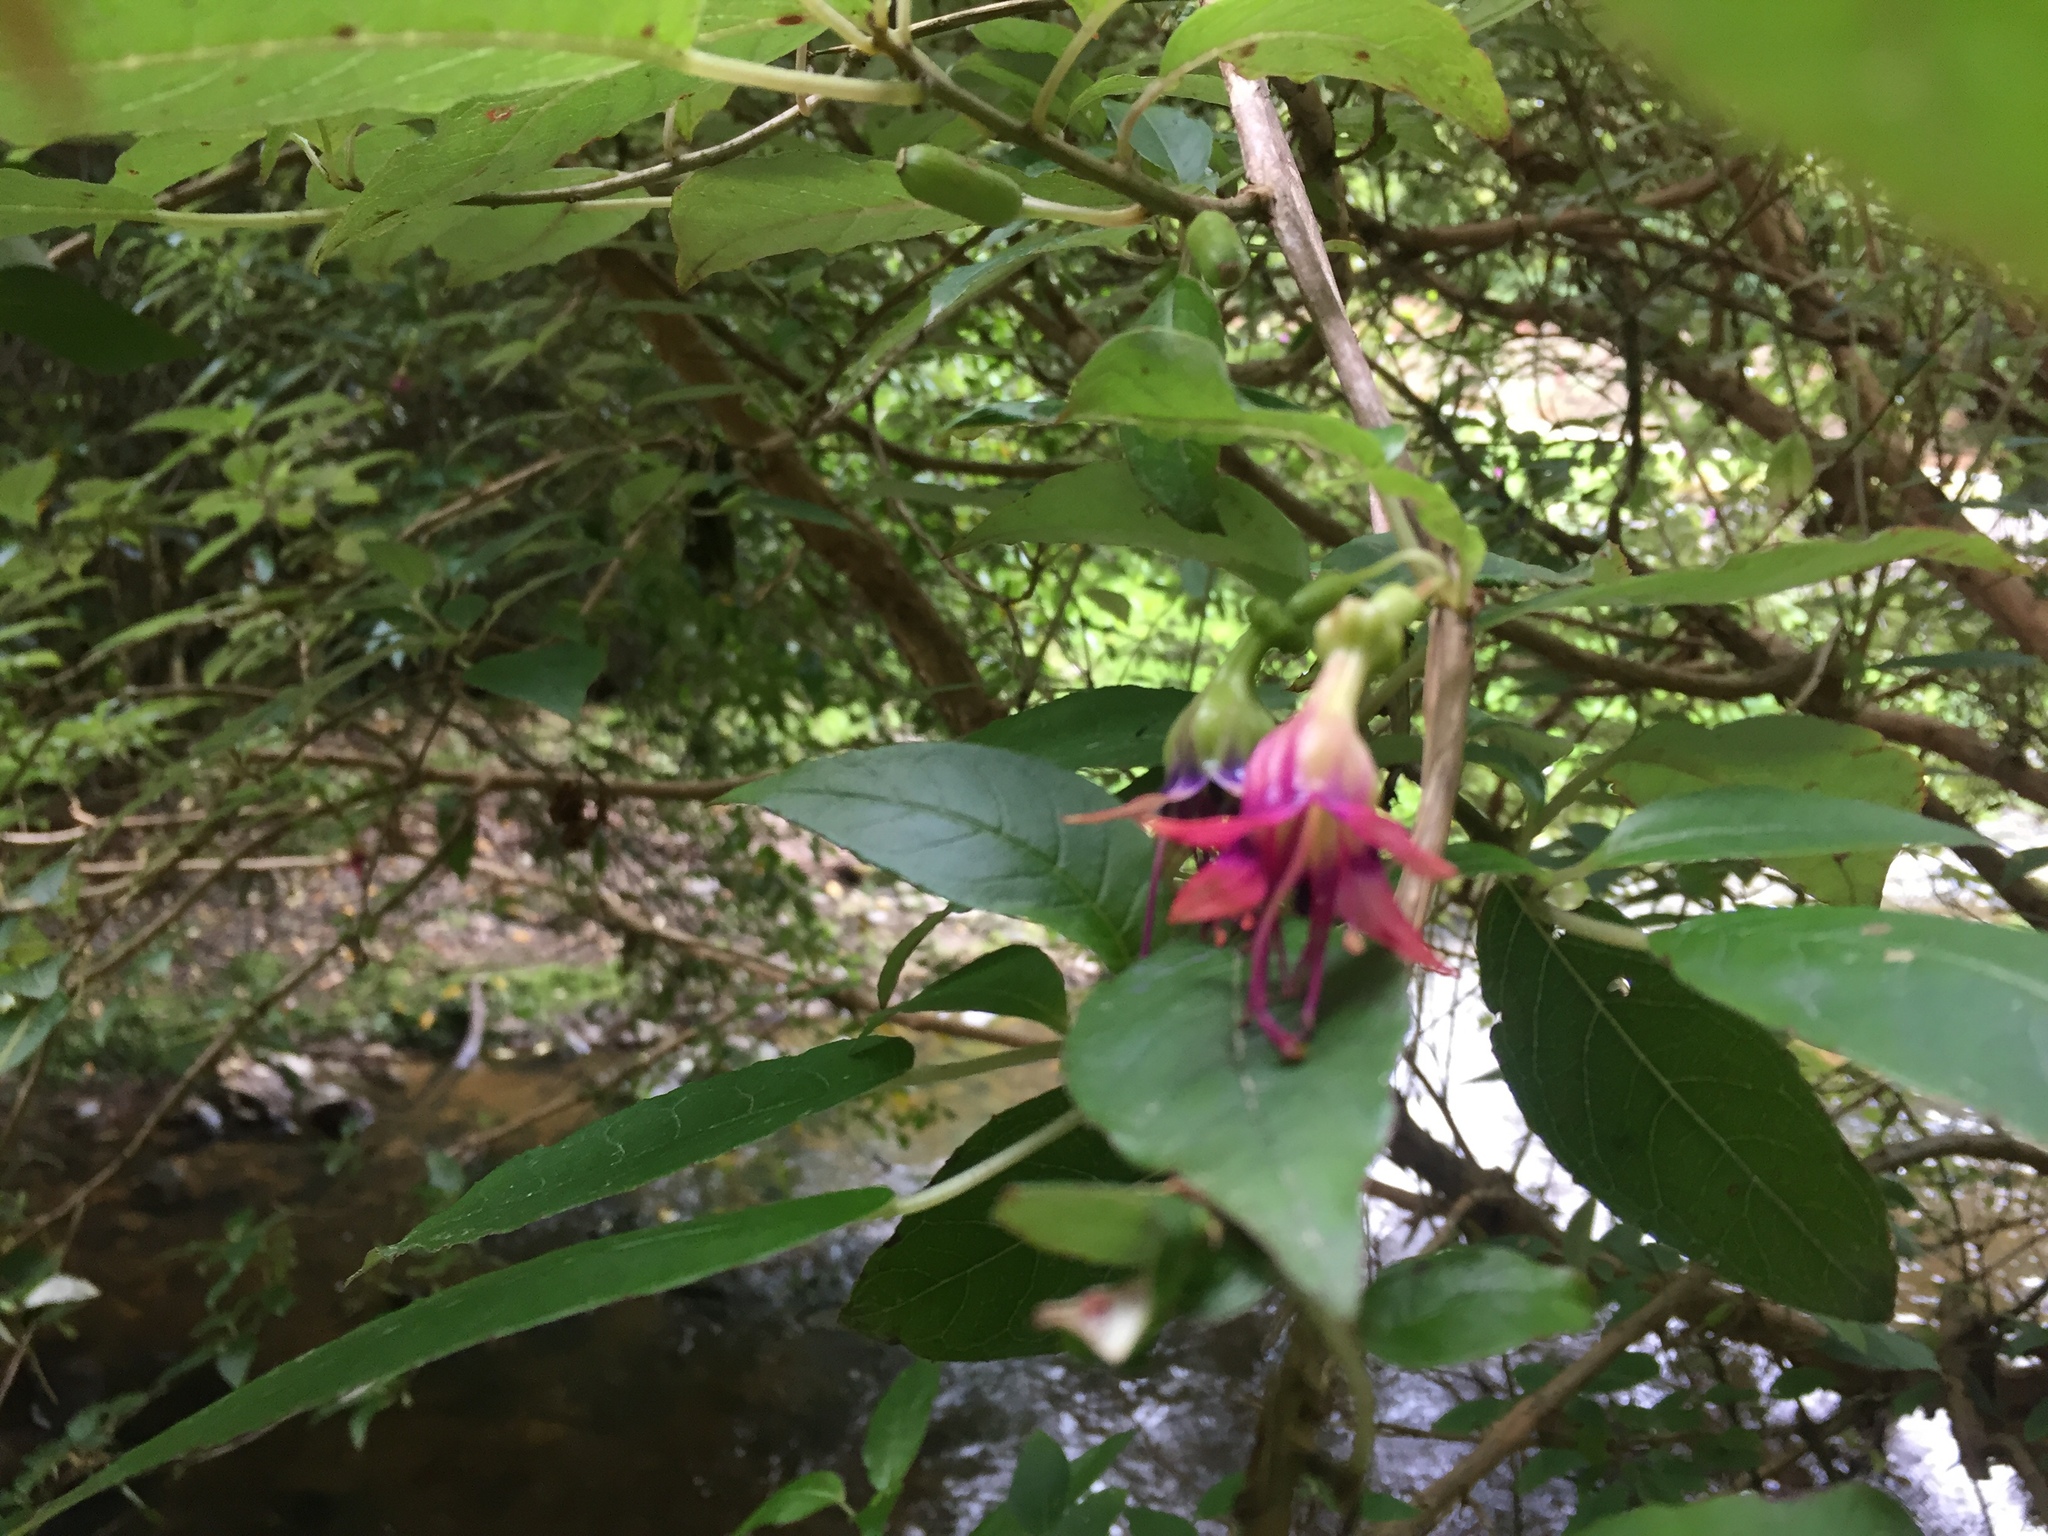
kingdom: Plantae
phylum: Tracheophyta
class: Magnoliopsida
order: Myrtales
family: Onagraceae
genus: Fuchsia
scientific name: Fuchsia excorticata
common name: Tree fuchsia
